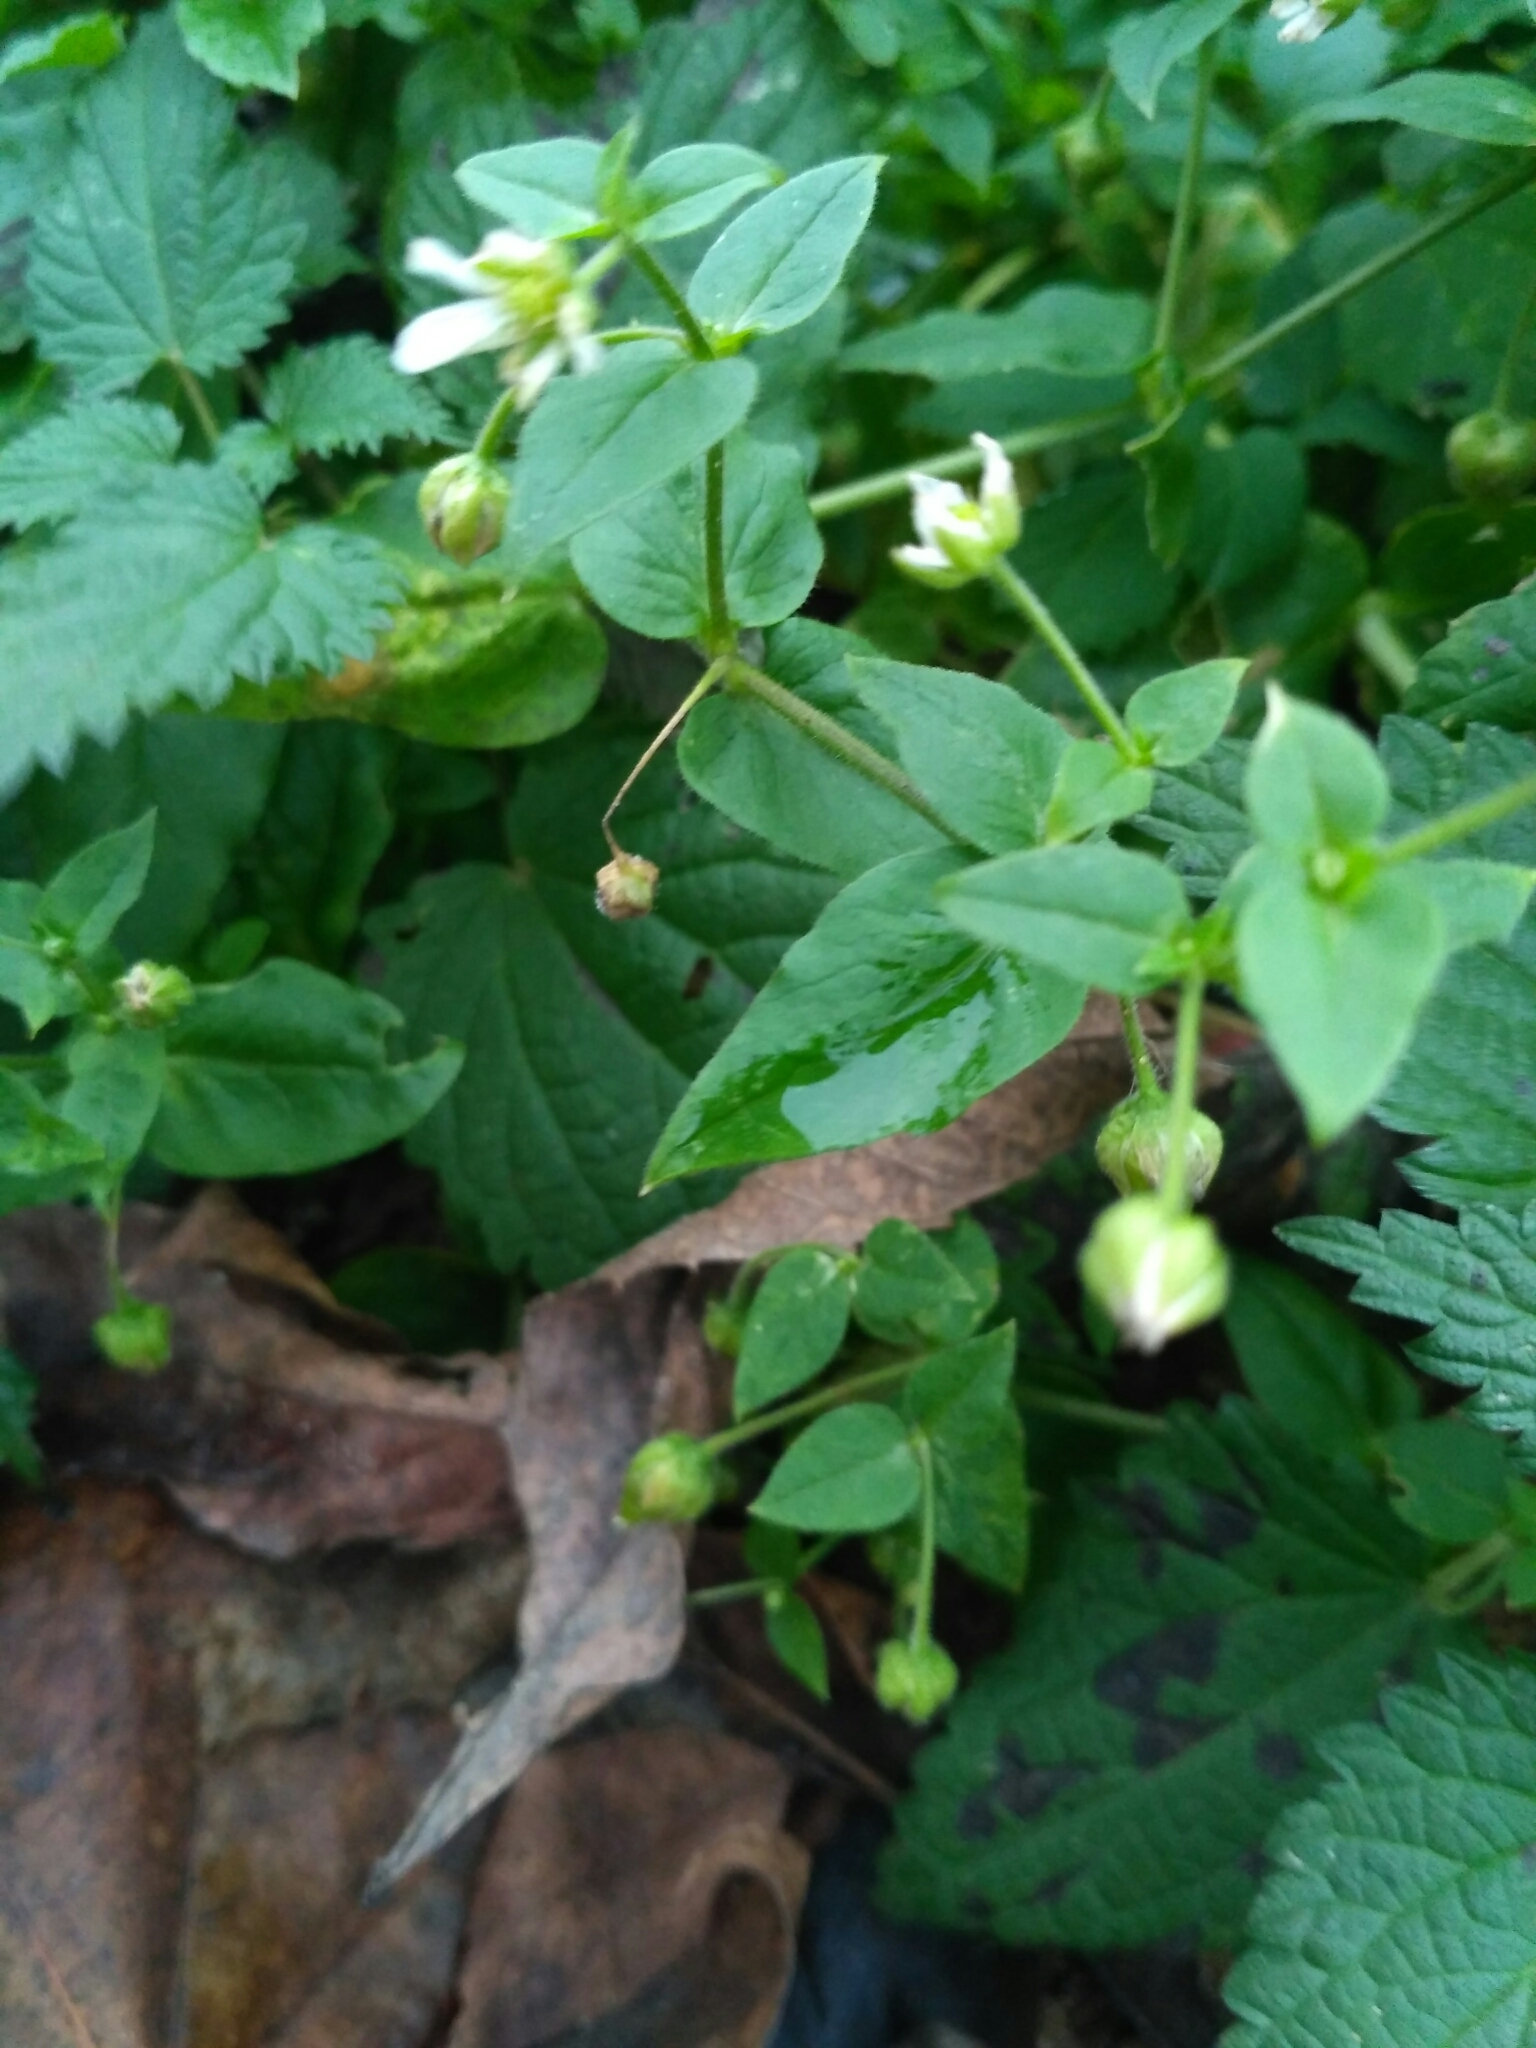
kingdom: Plantae
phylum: Tracheophyta
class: Magnoliopsida
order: Caryophyllales
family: Caryophyllaceae
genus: Stellaria
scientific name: Stellaria aquatica
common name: Water chickweed
